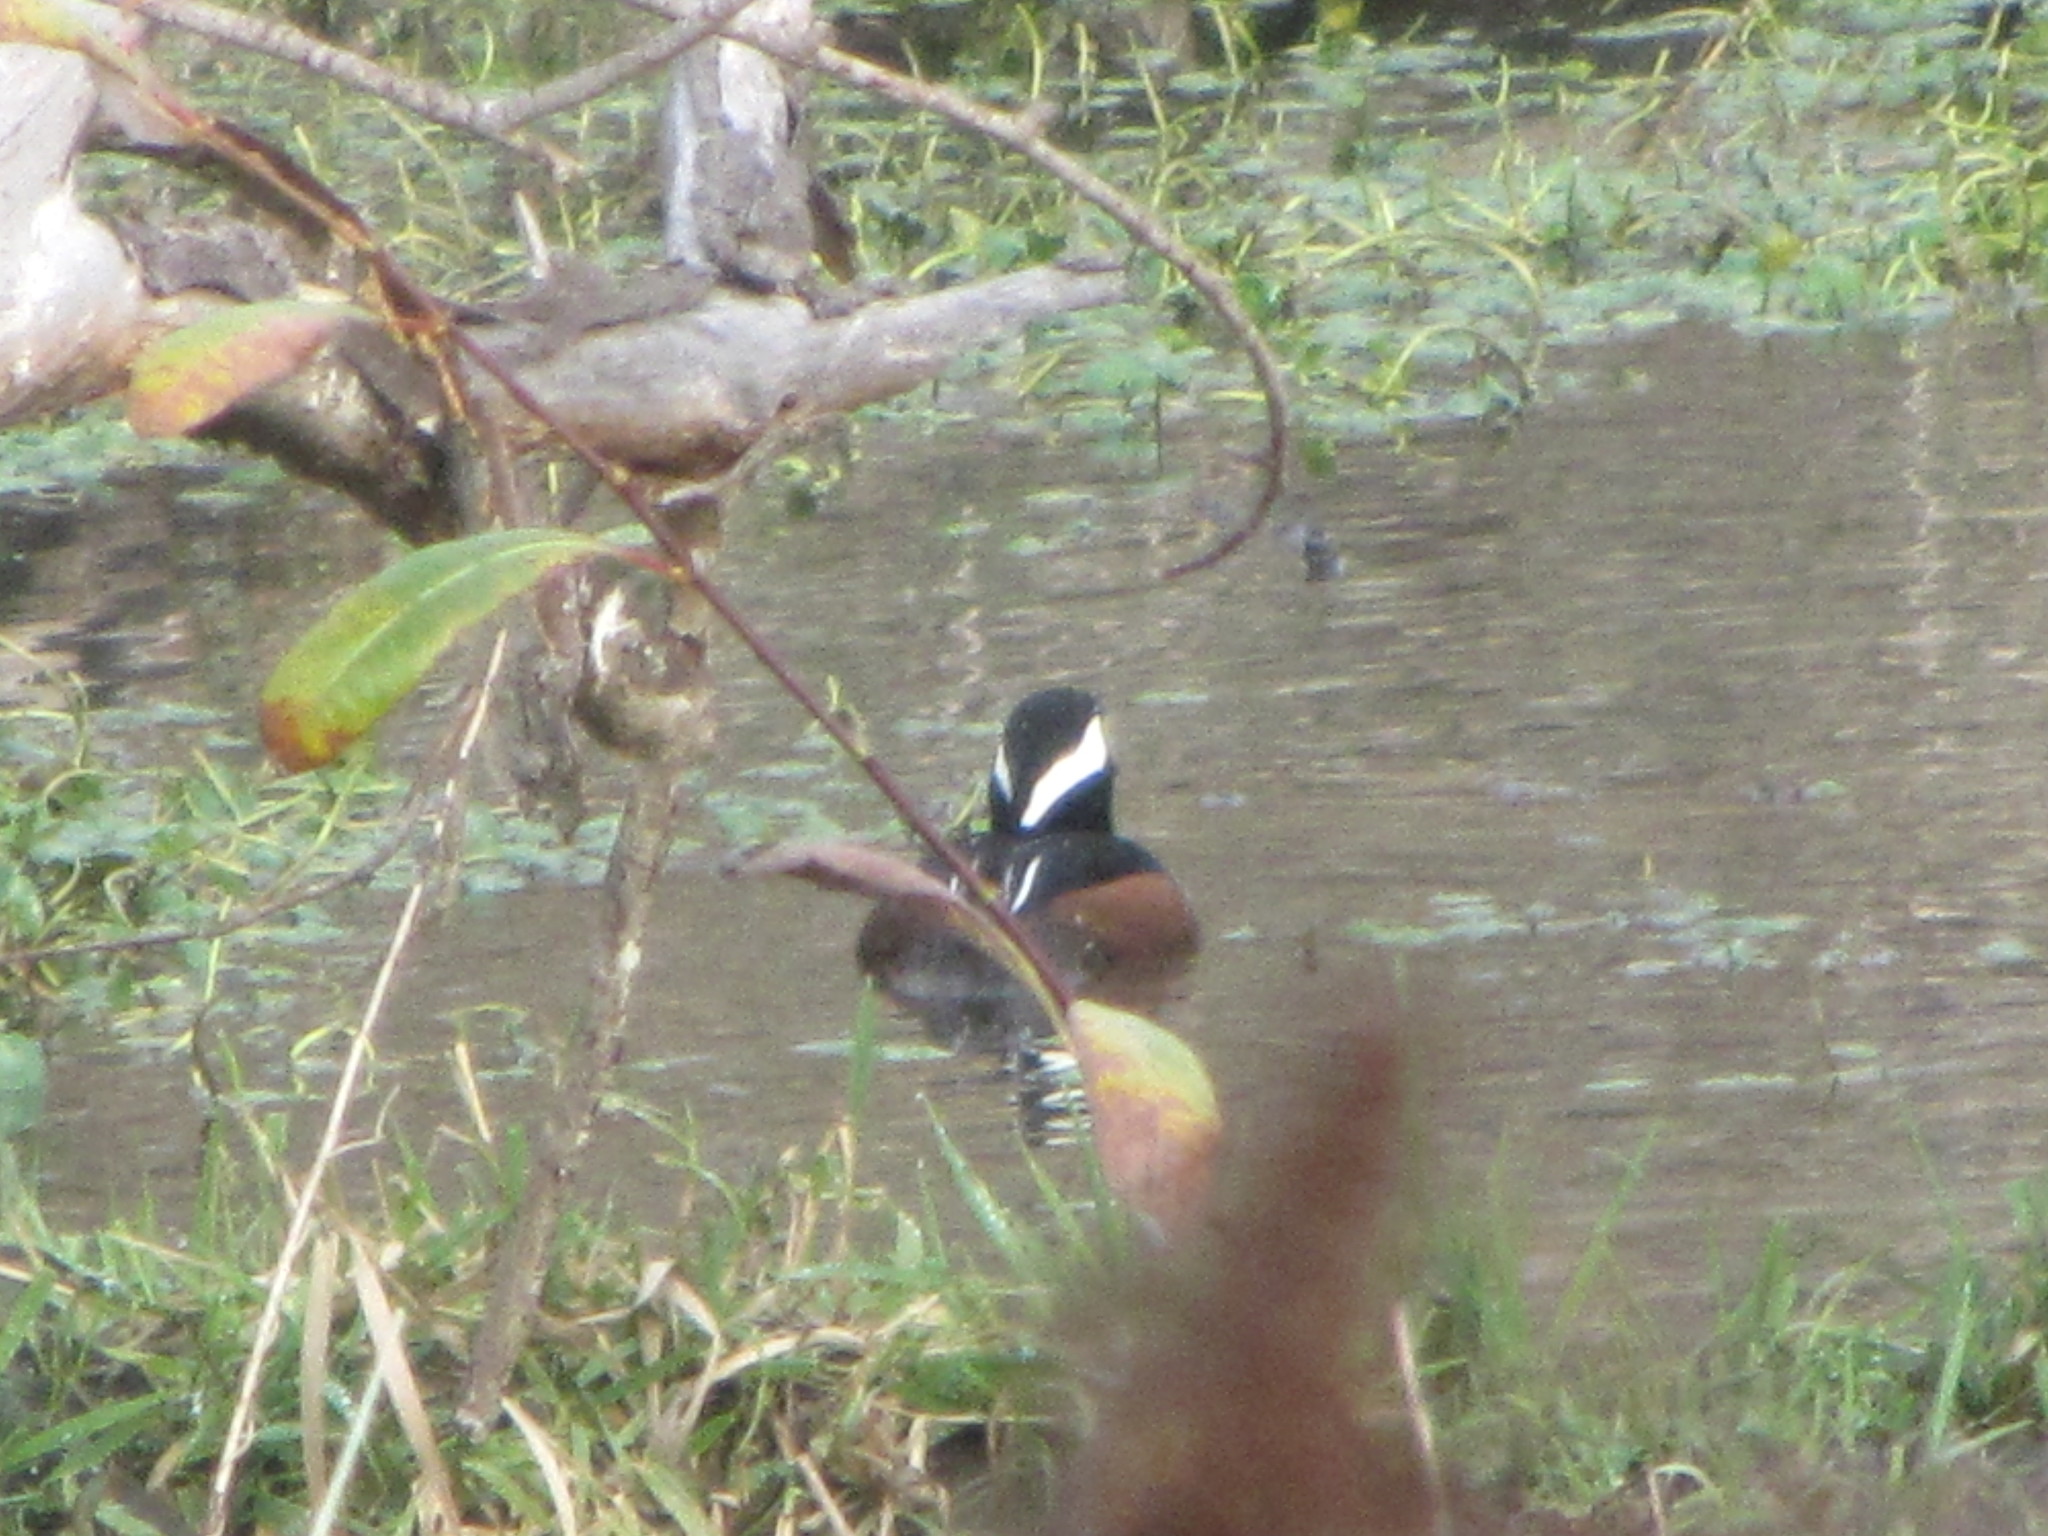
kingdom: Animalia
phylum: Chordata
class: Aves
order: Anseriformes
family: Anatidae
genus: Lophodytes
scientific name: Lophodytes cucullatus
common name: Hooded merganser
